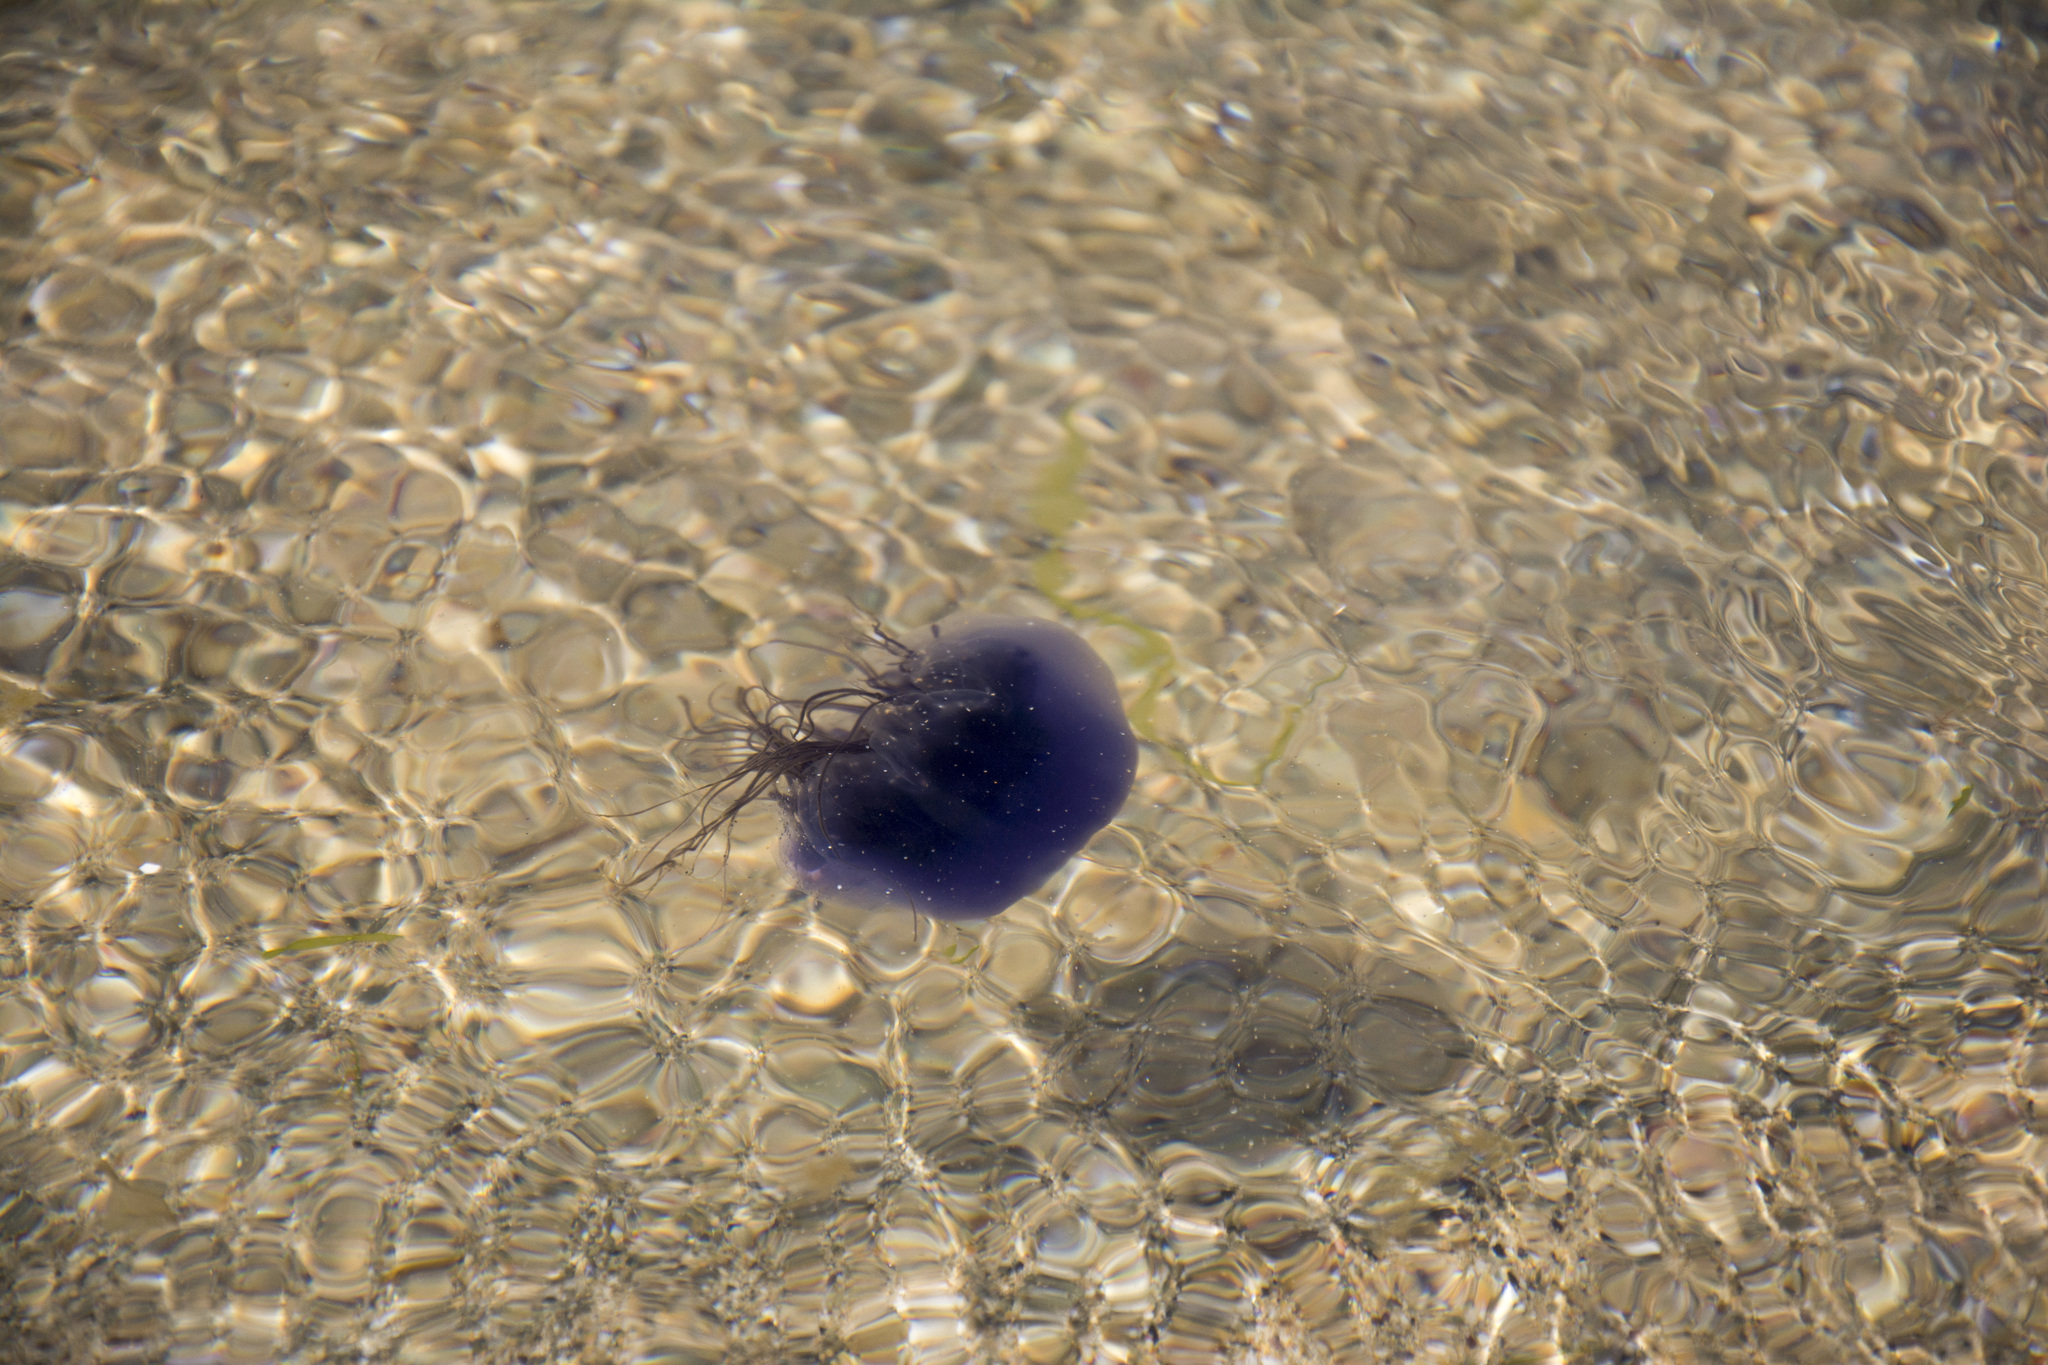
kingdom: Animalia
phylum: Cnidaria
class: Scyphozoa
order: Semaeostomeae
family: Cyaneidae
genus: Cyanea
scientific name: Cyanea lamarckii
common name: Blue jellyfish
